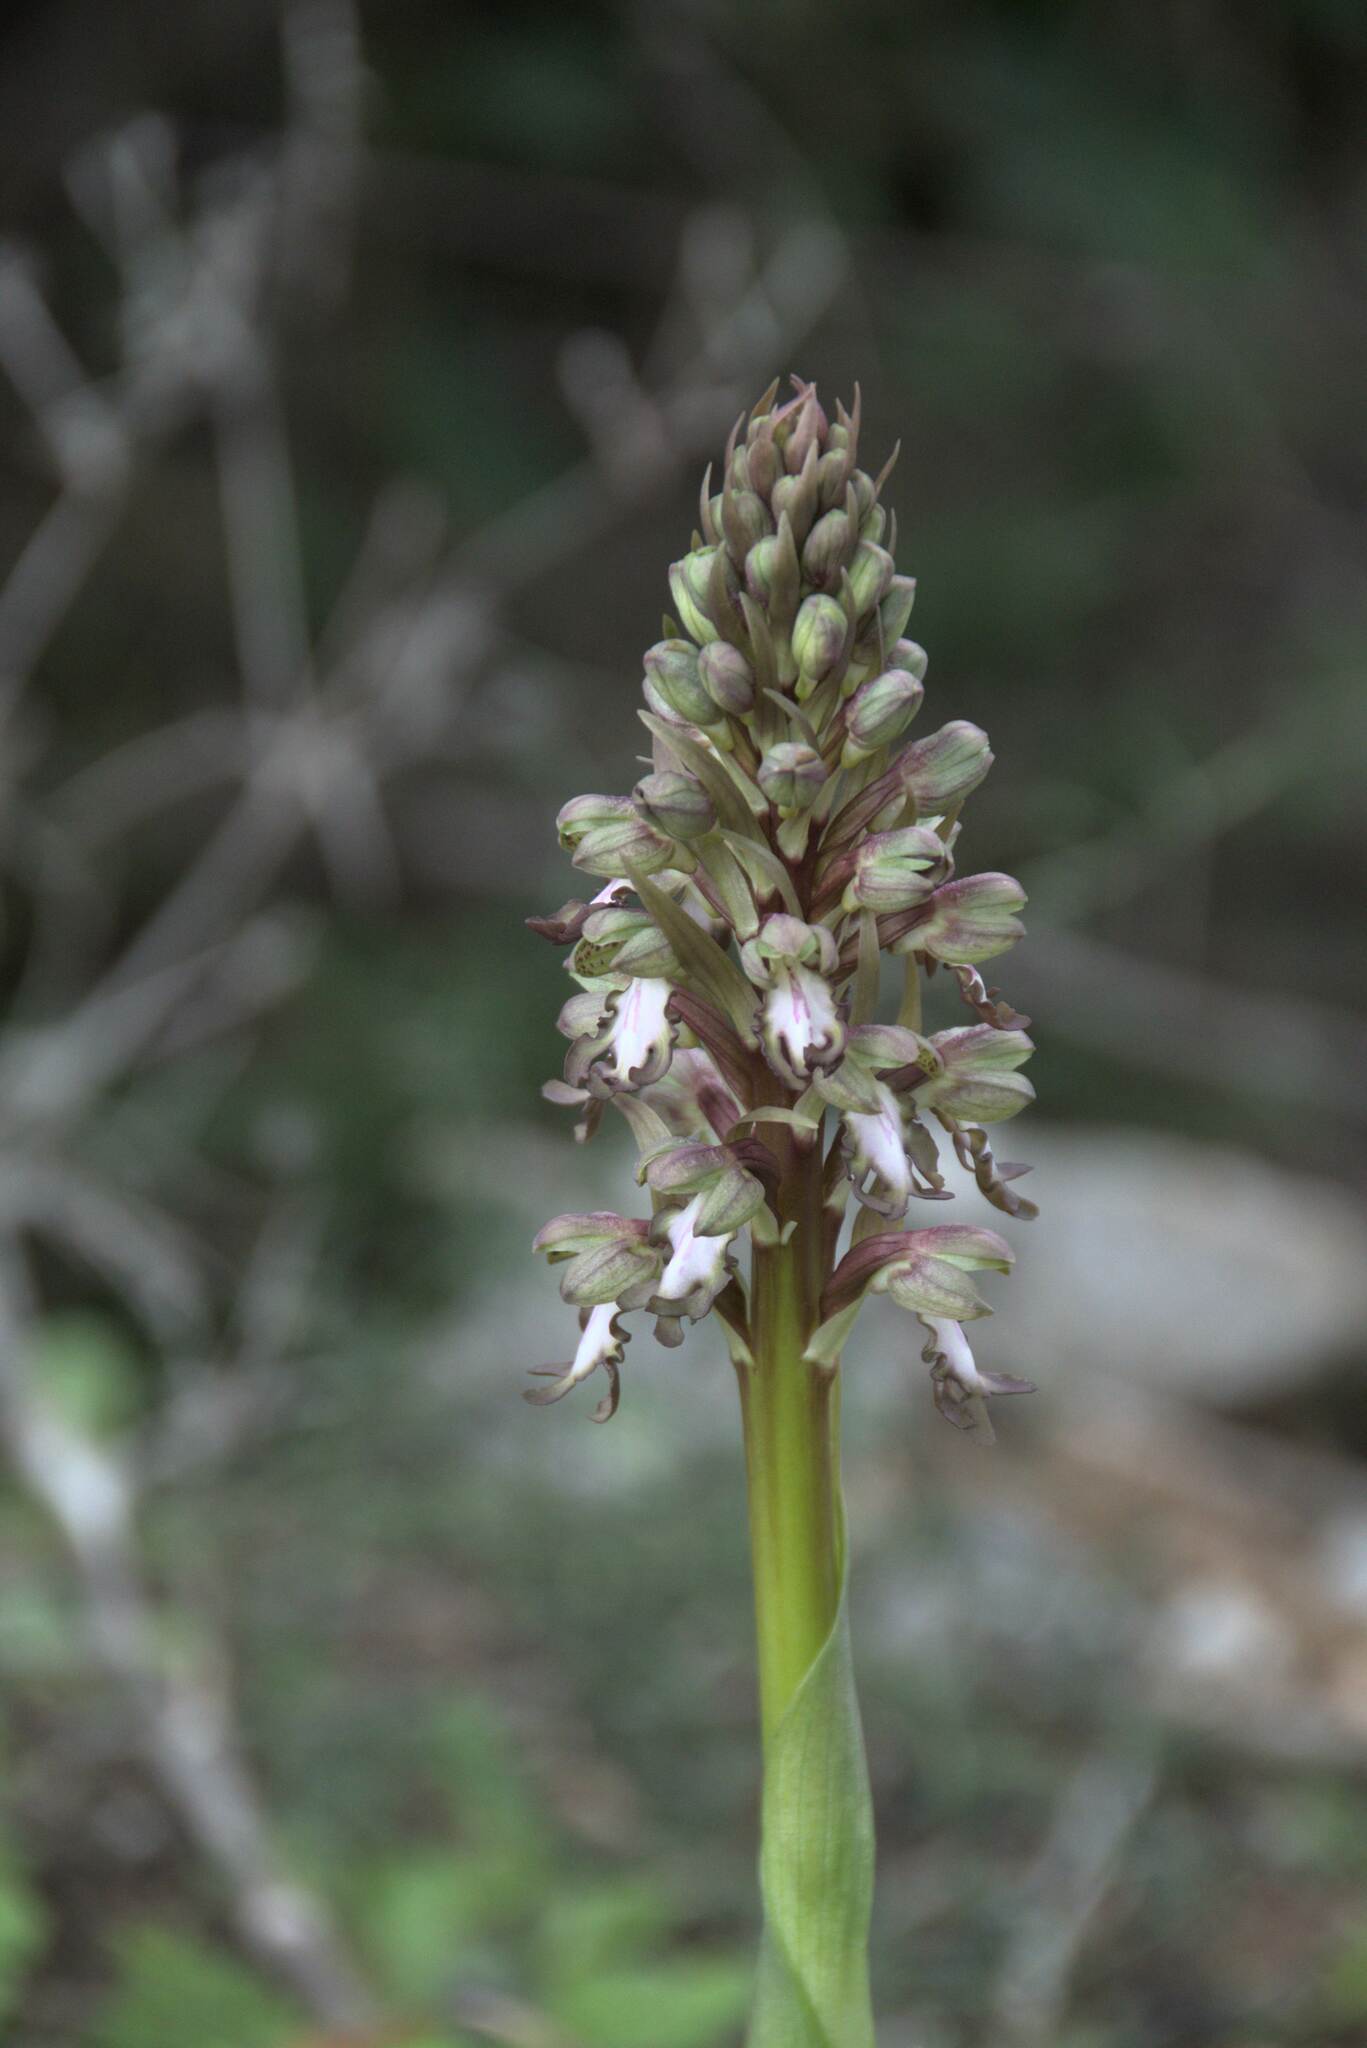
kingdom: Plantae
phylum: Tracheophyta
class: Liliopsida
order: Asparagales
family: Orchidaceae
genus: Himantoglossum
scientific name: Himantoglossum robertianum
